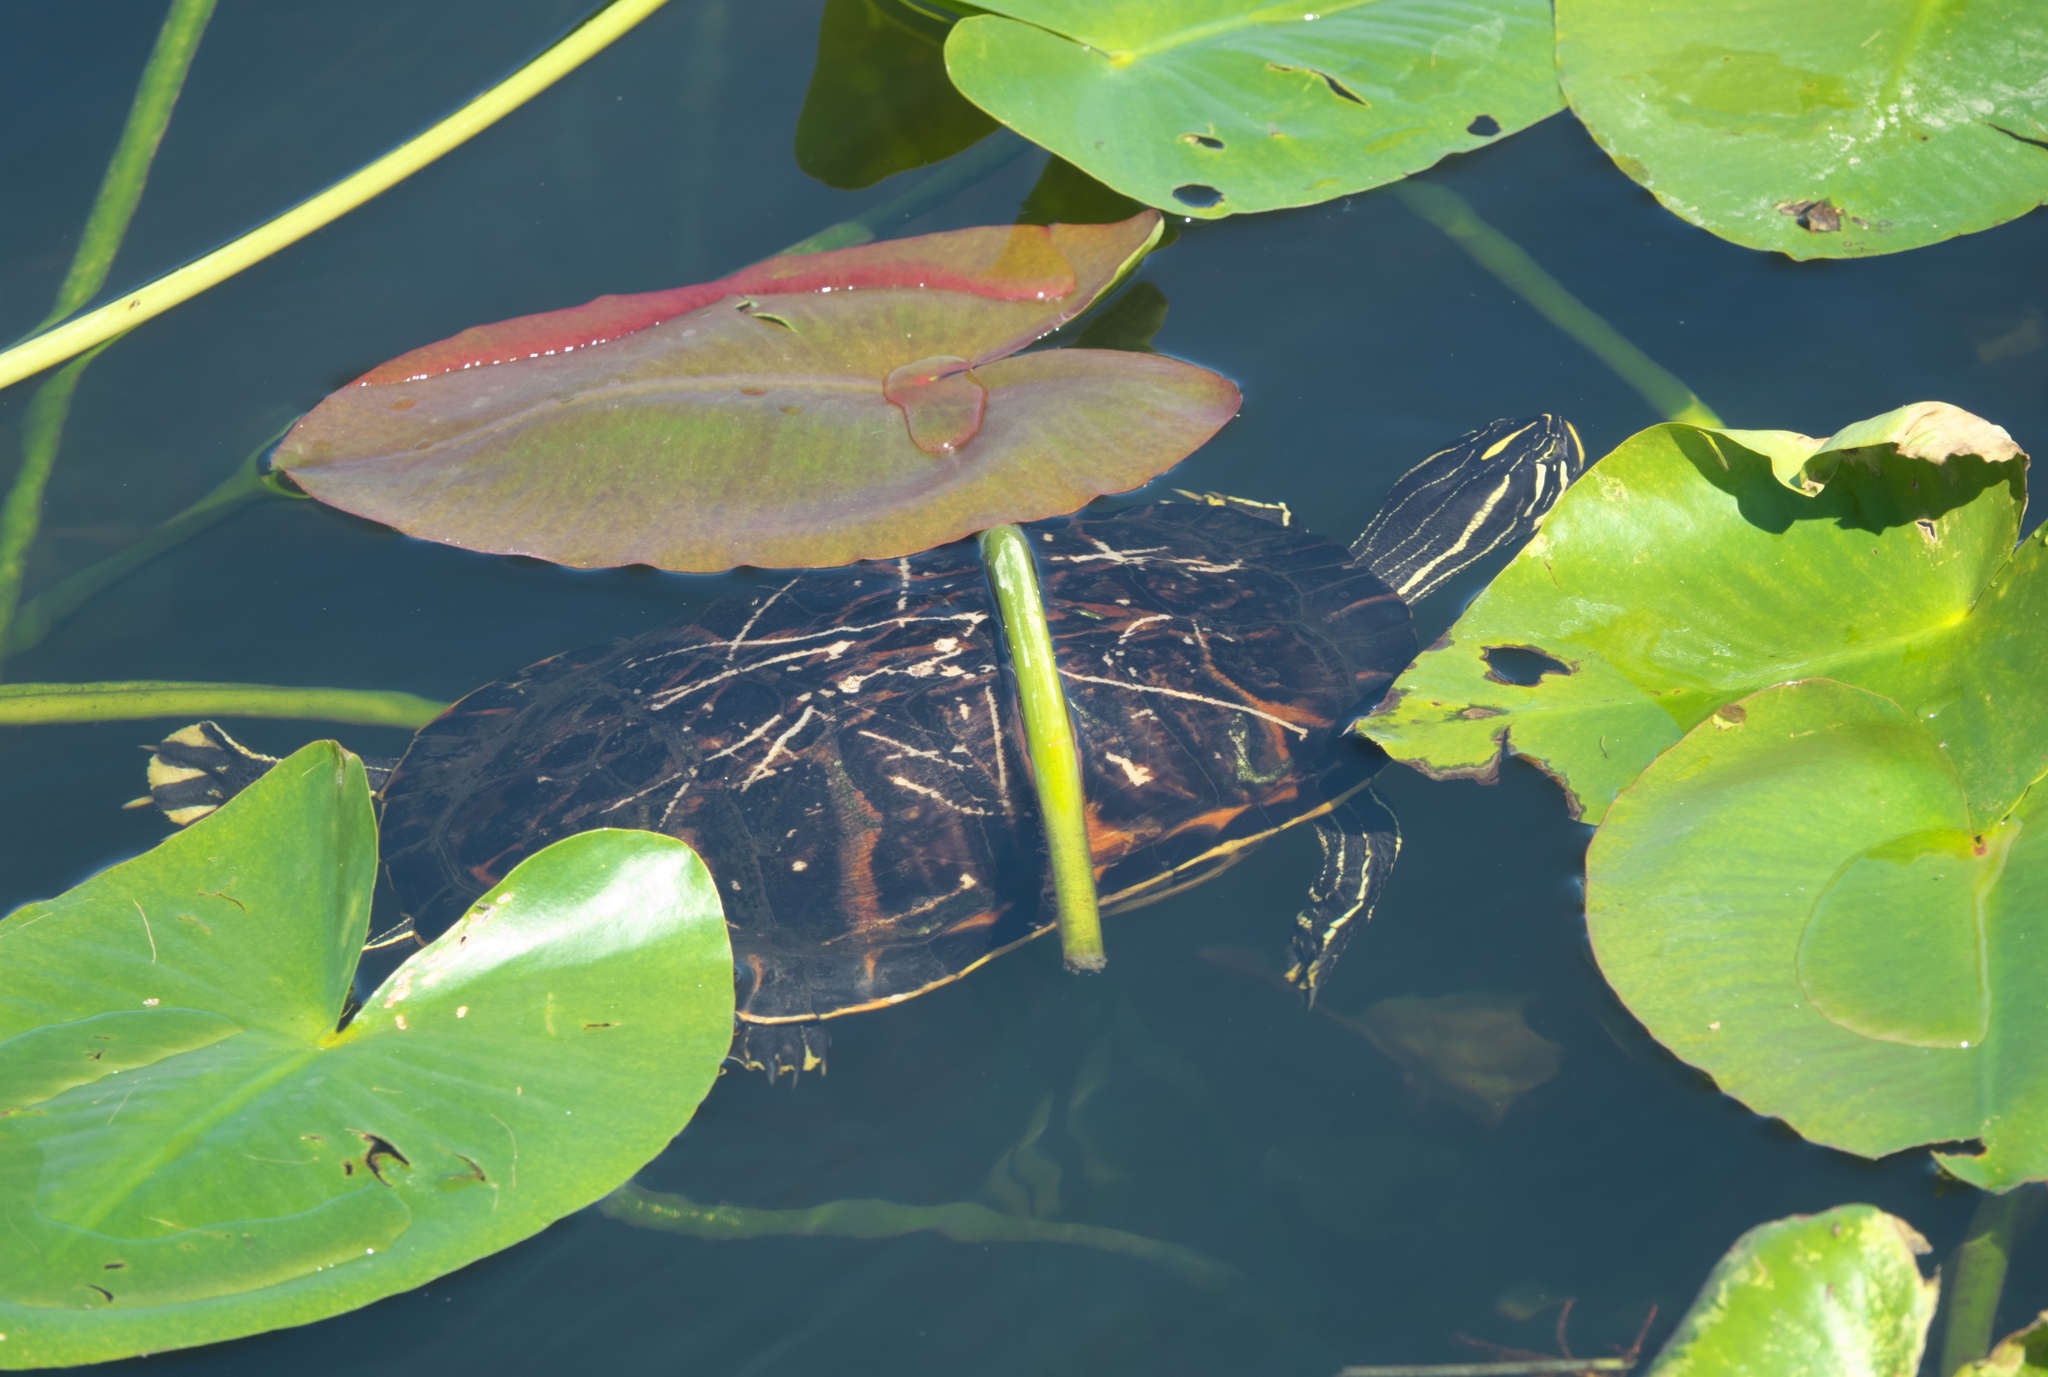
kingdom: Animalia
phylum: Chordata
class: Testudines
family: Emydidae
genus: Pseudemys
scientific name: Pseudemys nelsoni
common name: Florida red-bellied turtle
